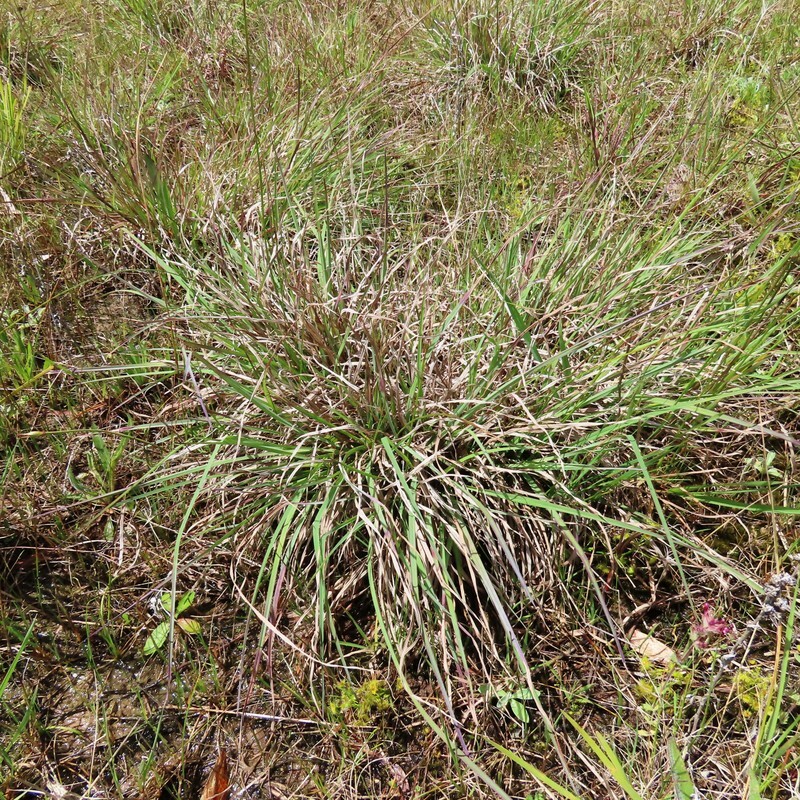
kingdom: Plantae
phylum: Tracheophyta
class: Liliopsida
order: Poales
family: Poaceae
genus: Themeda
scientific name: Themeda triandra
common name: Kangaroo grass
